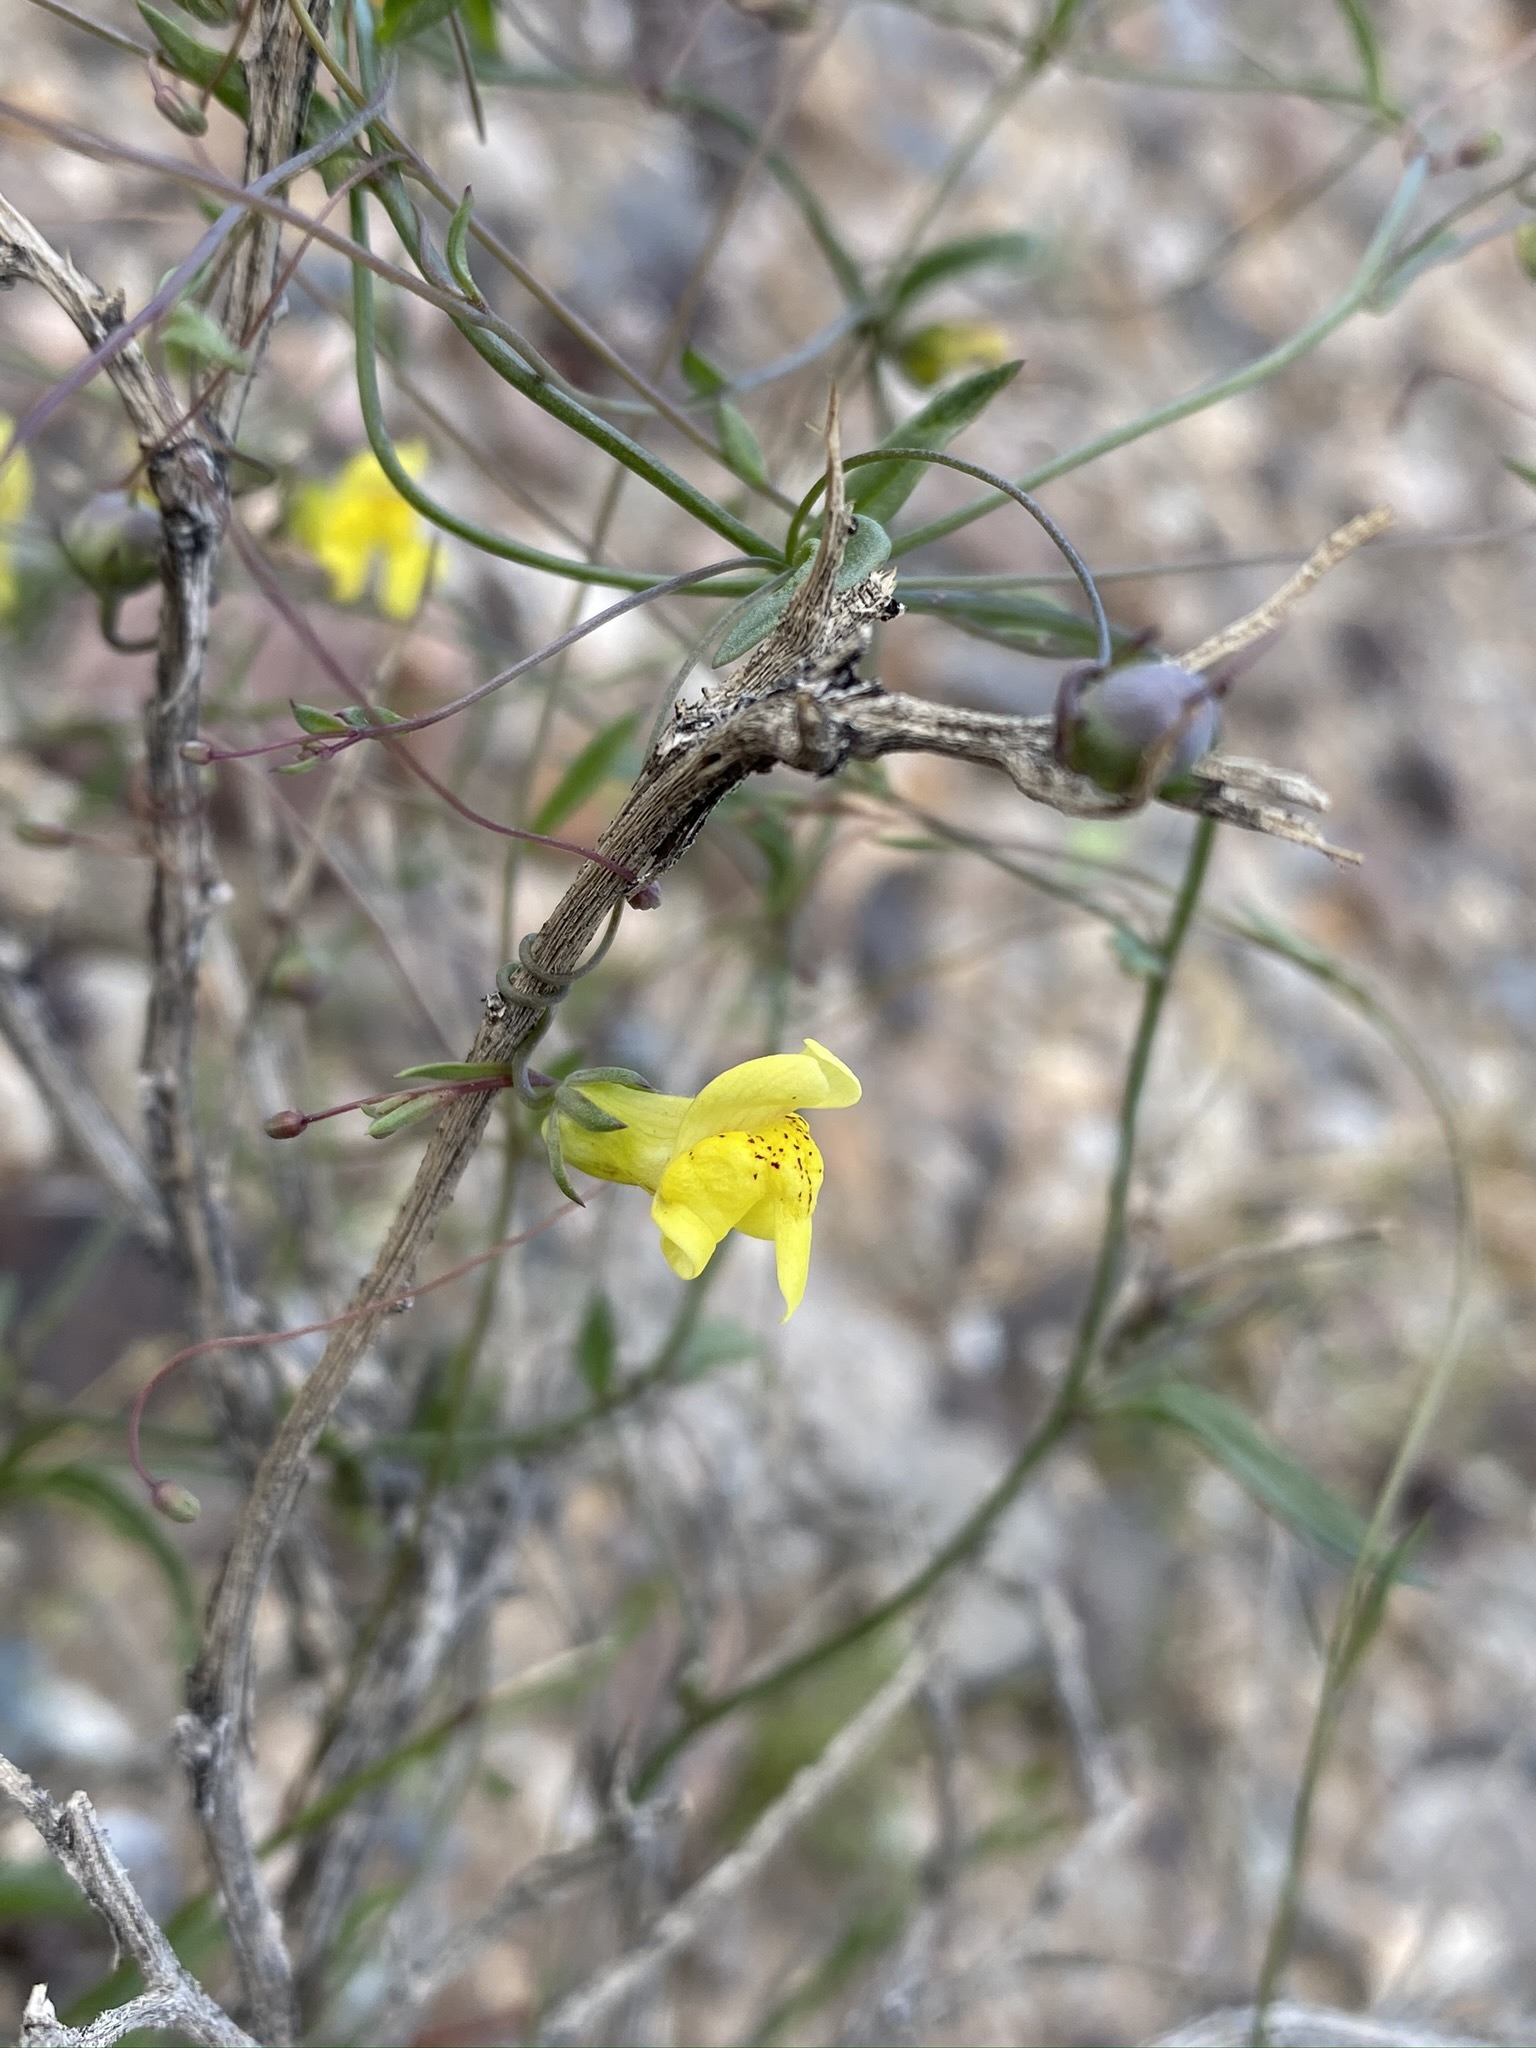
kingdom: Plantae
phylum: Tracheophyta
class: Magnoliopsida
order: Lamiales
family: Plantaginaceae
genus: Neogaerrhinum
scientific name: Neogaerrhinum filipes
